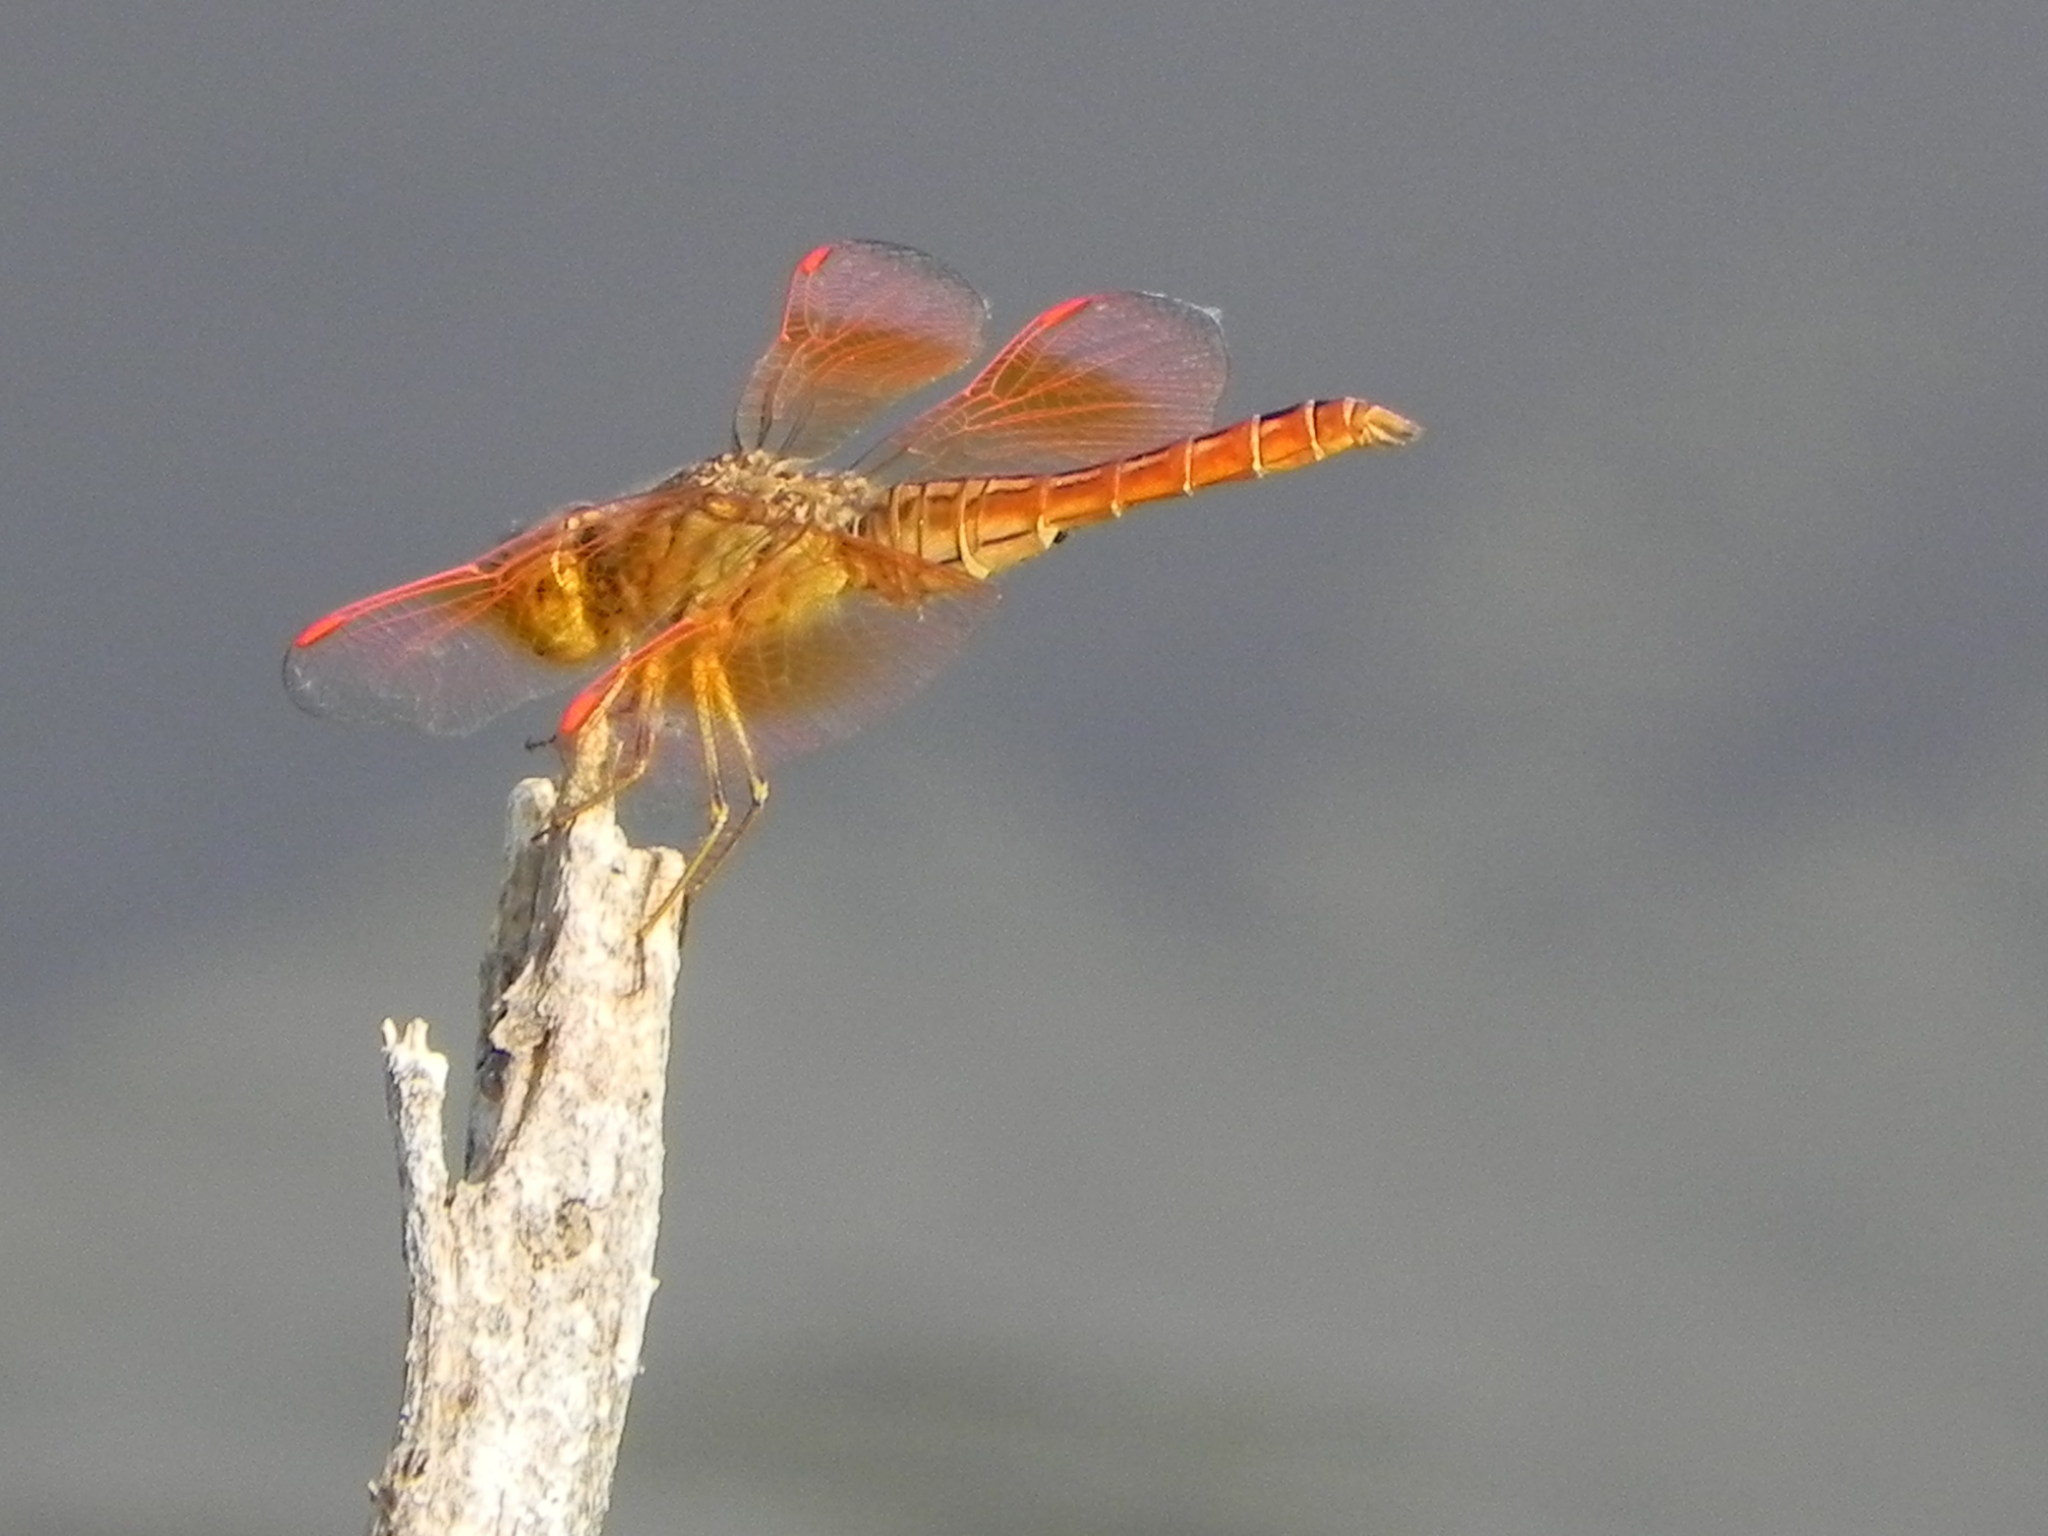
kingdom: Animalia
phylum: Arthropoda
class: Insecta
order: Odonata
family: Libellulidae
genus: Brachythemis
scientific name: Brachythemis contaminata
